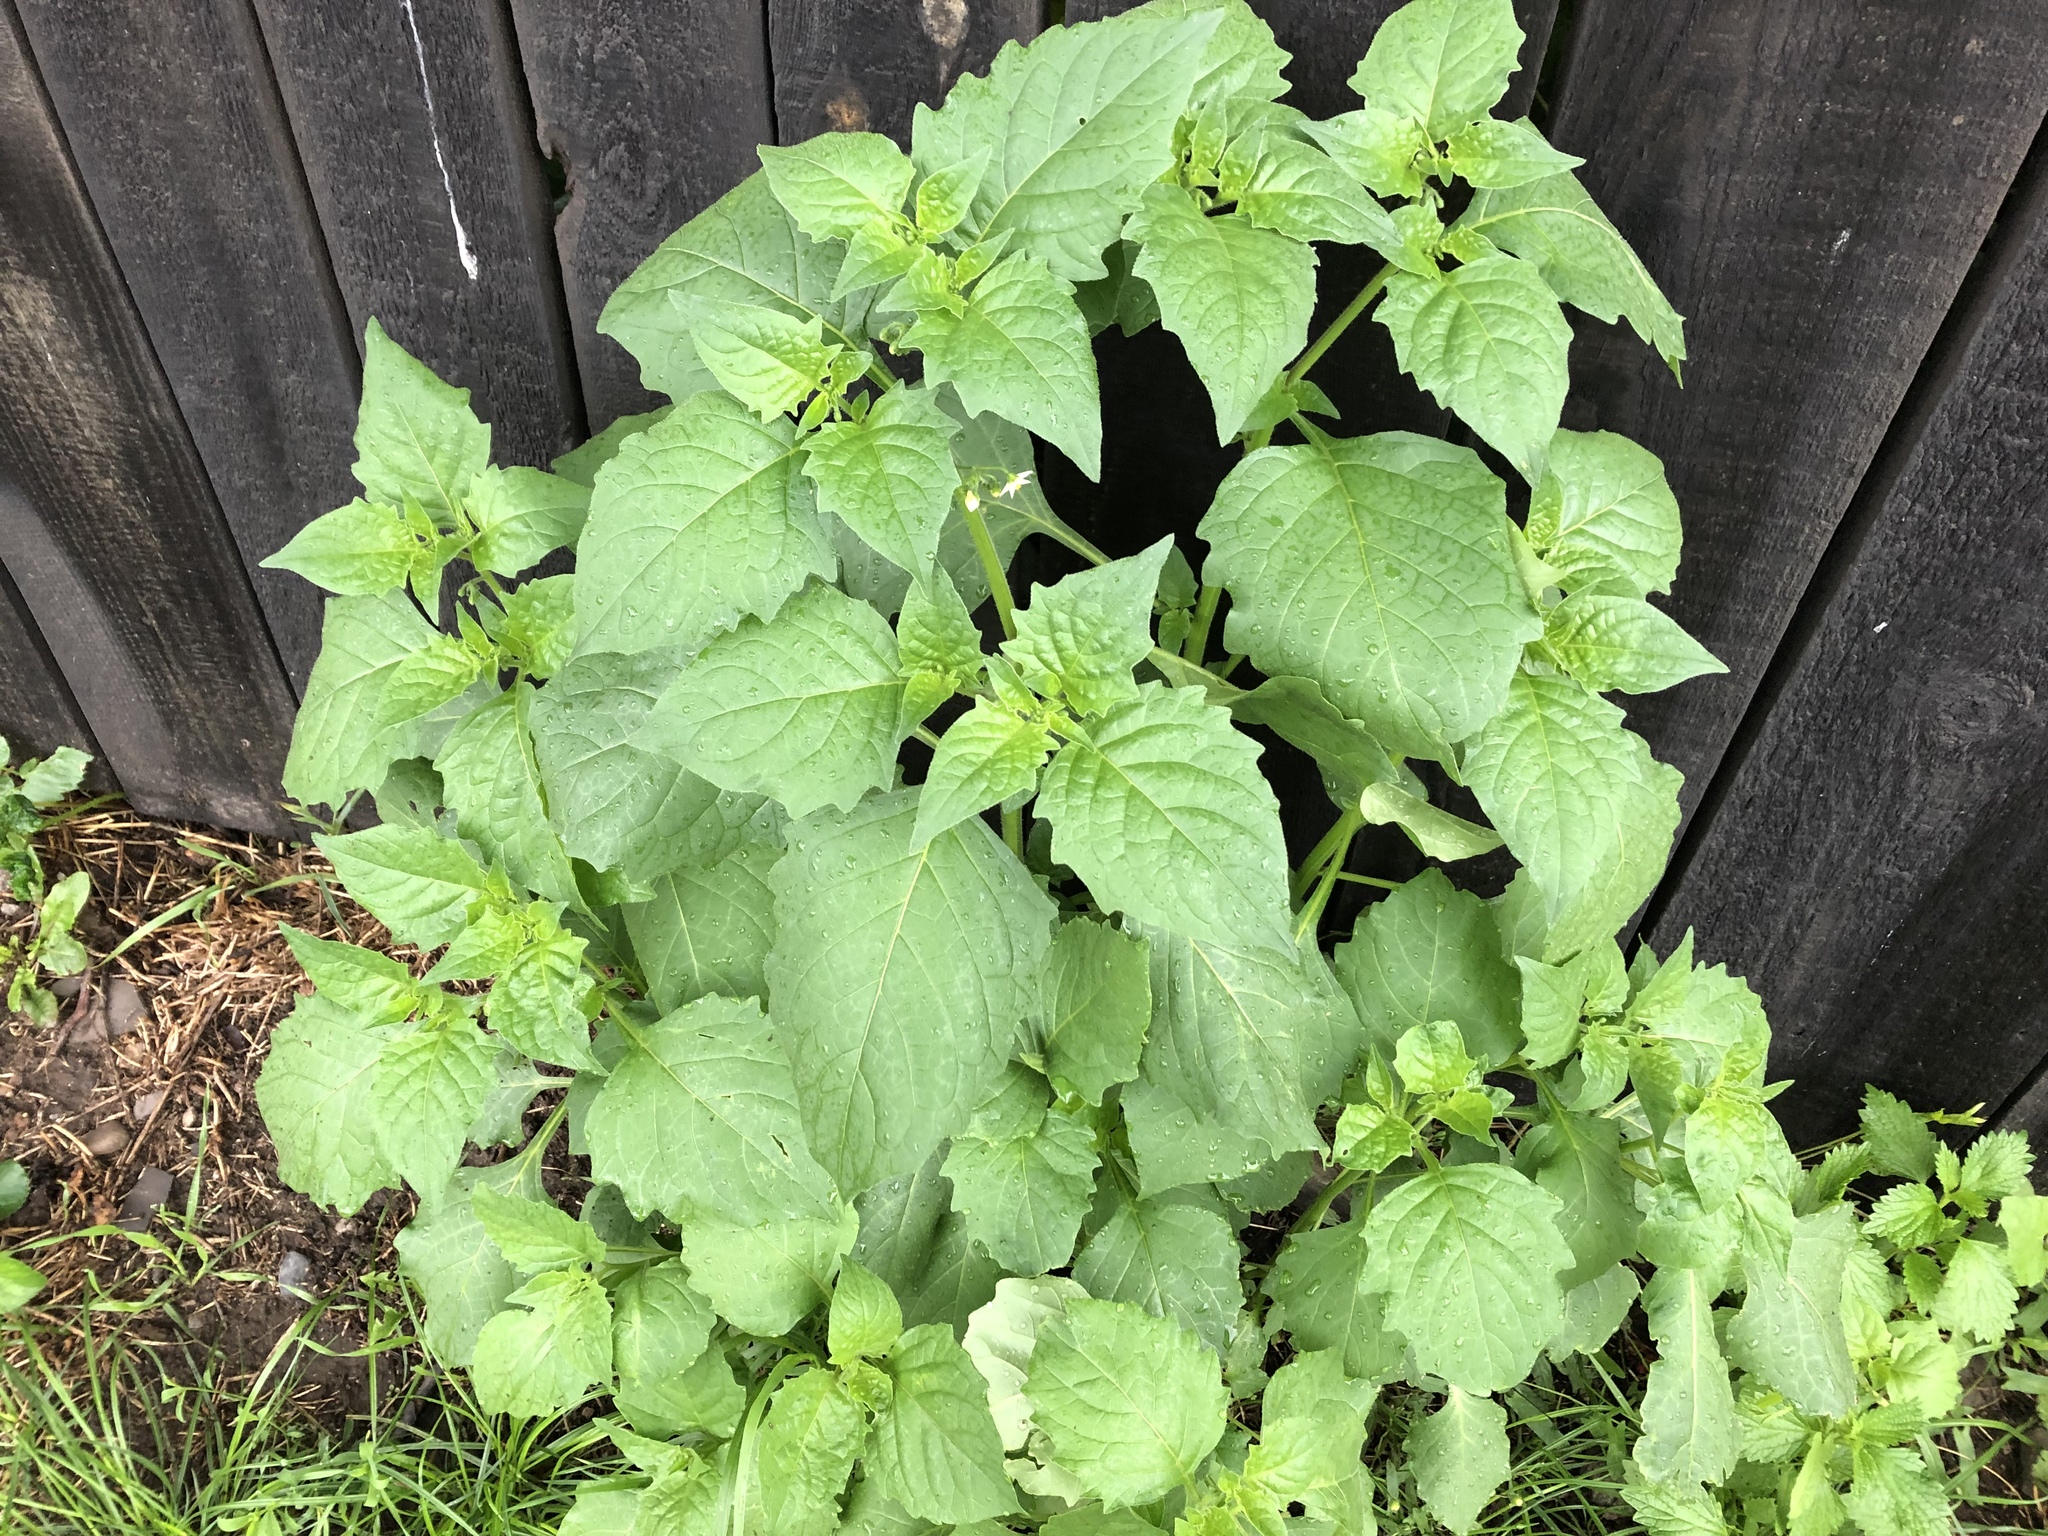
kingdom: Plantae
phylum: Tracheophyta
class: Magnoliopsida
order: Solanales
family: Solanaceae
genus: Solanum
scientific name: Solanum nigrum
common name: Black nightshade
